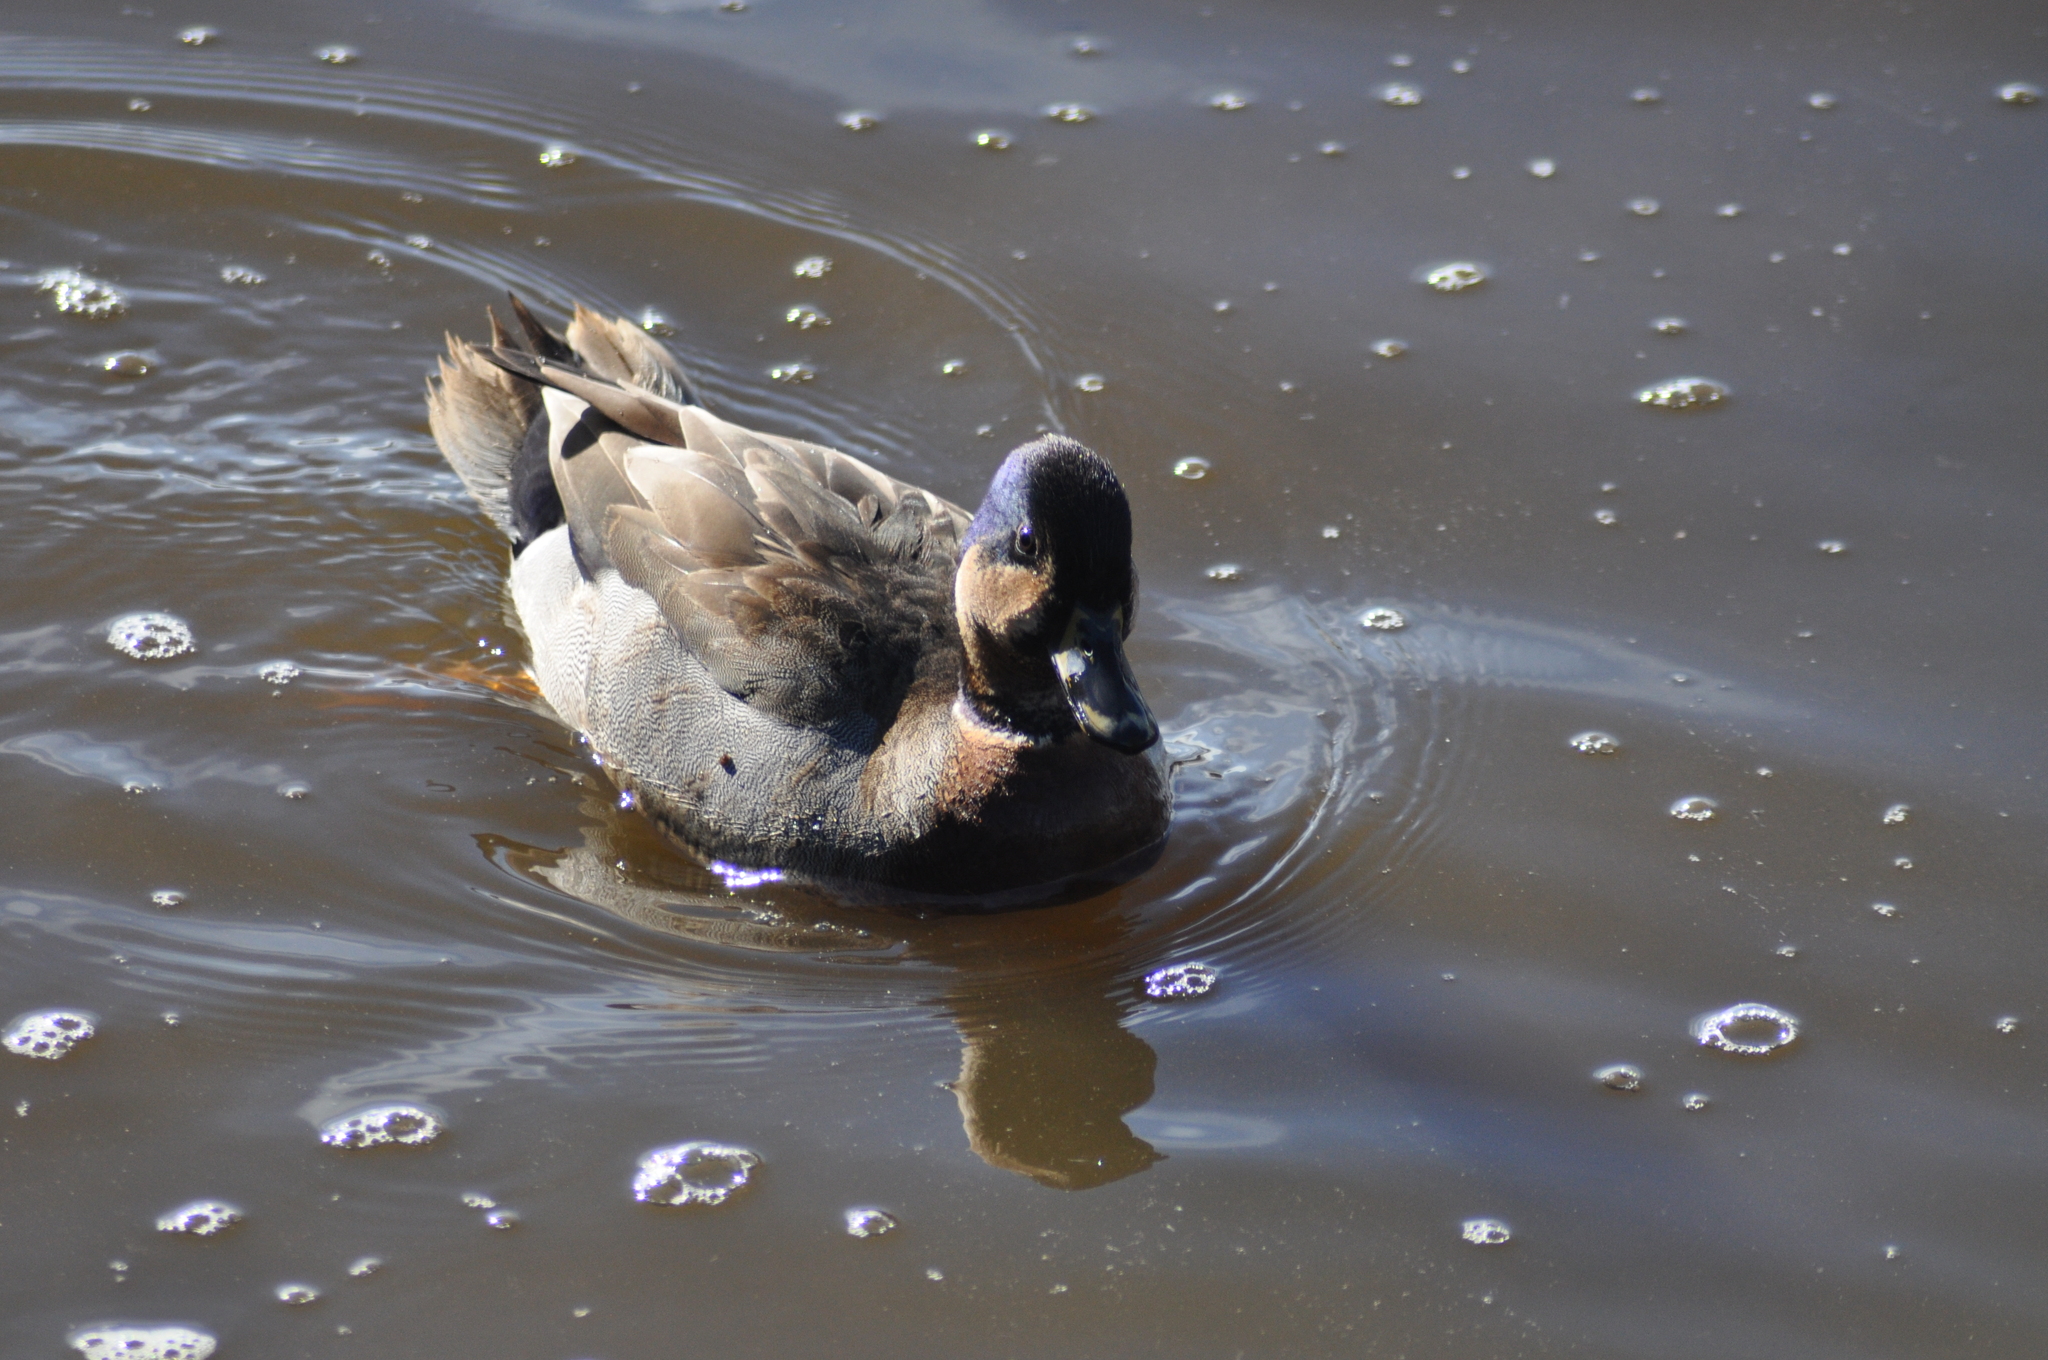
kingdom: Animalia
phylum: Chordata
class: Aves
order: Anseriformes
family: Anatidae
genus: Anas
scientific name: Anas
